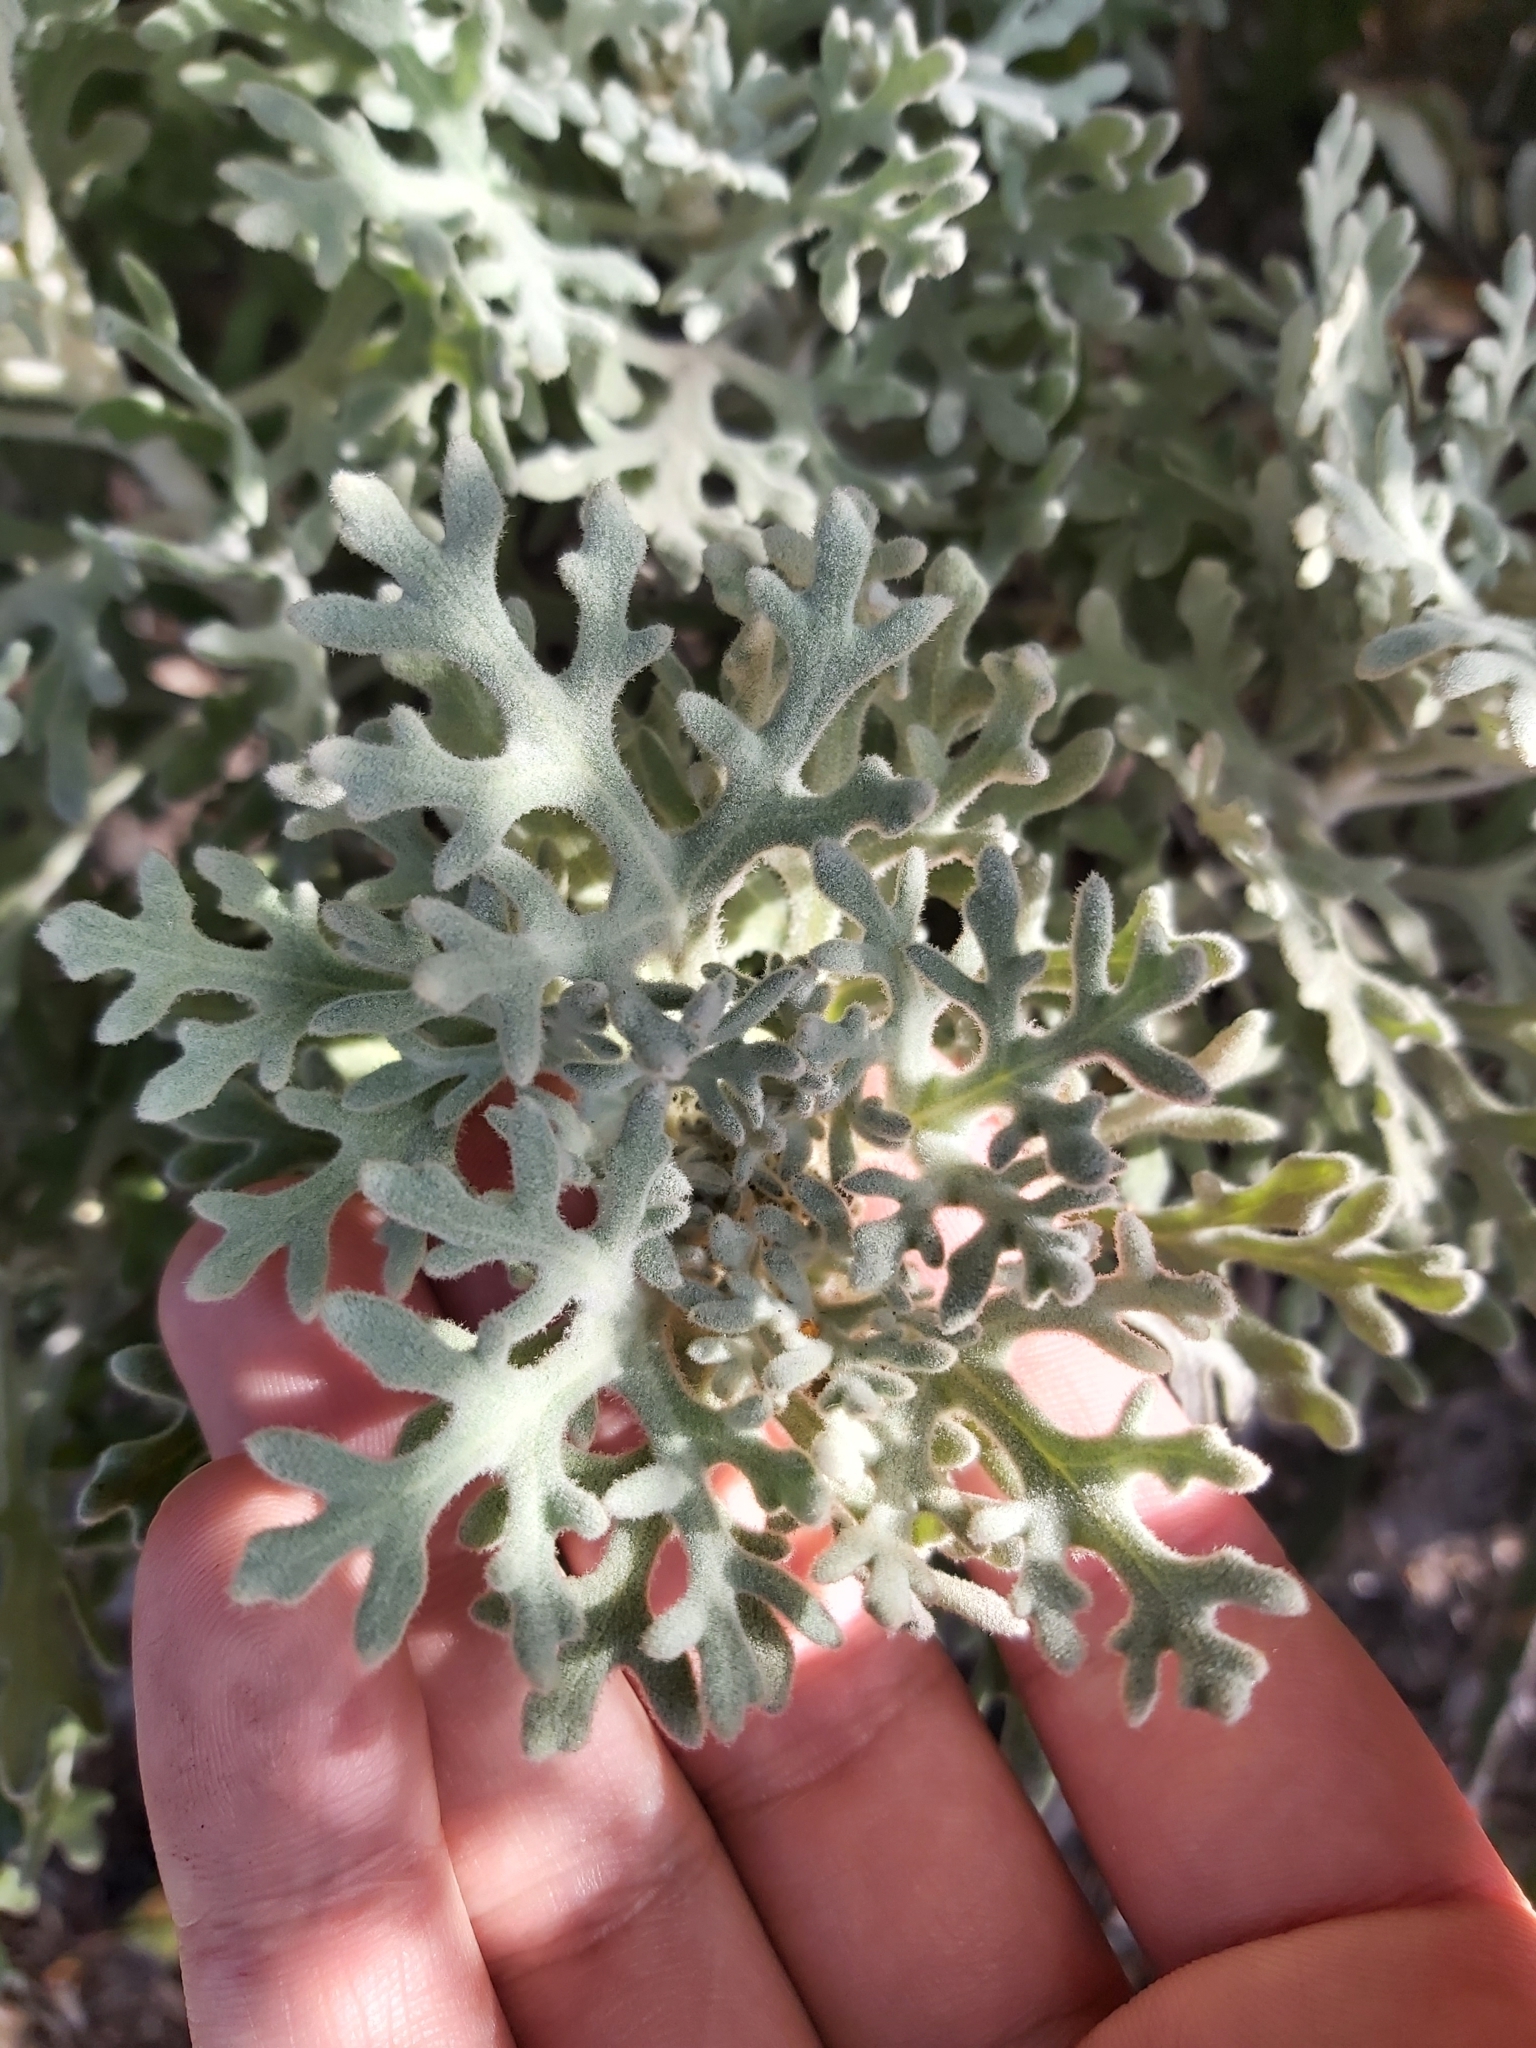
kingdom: Plantae
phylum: Tracheophyta
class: Magnoliopsida
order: Apiales
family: Apiaceae
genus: Actinotus
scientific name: Actinotus helianthi
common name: Flannel-flower
